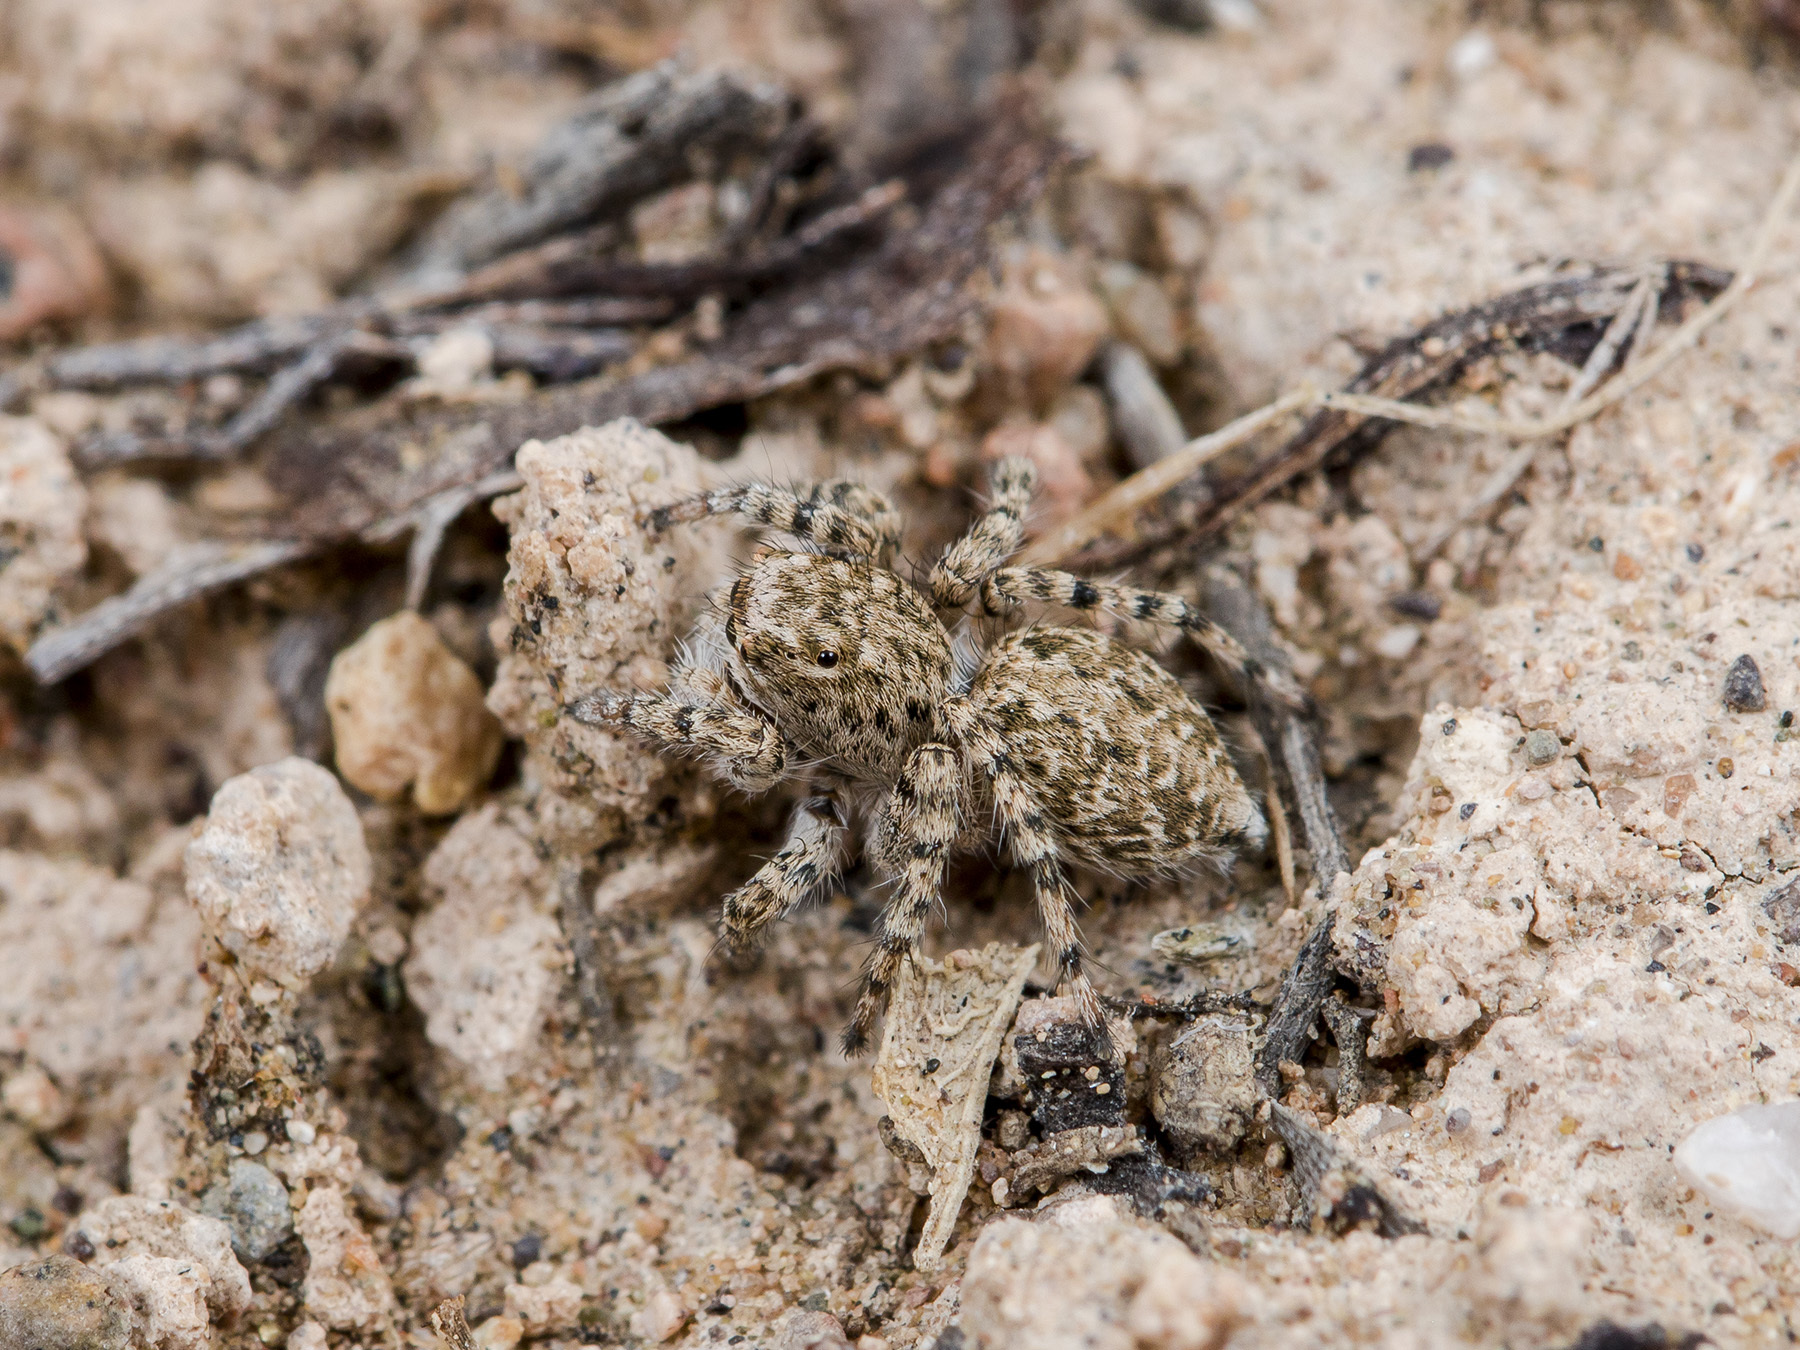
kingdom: Animalia
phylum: Arthropoda
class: Arachnida
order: Araneae
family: Salticidae
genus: Aelurillus
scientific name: Aelurillus dubatolovi
